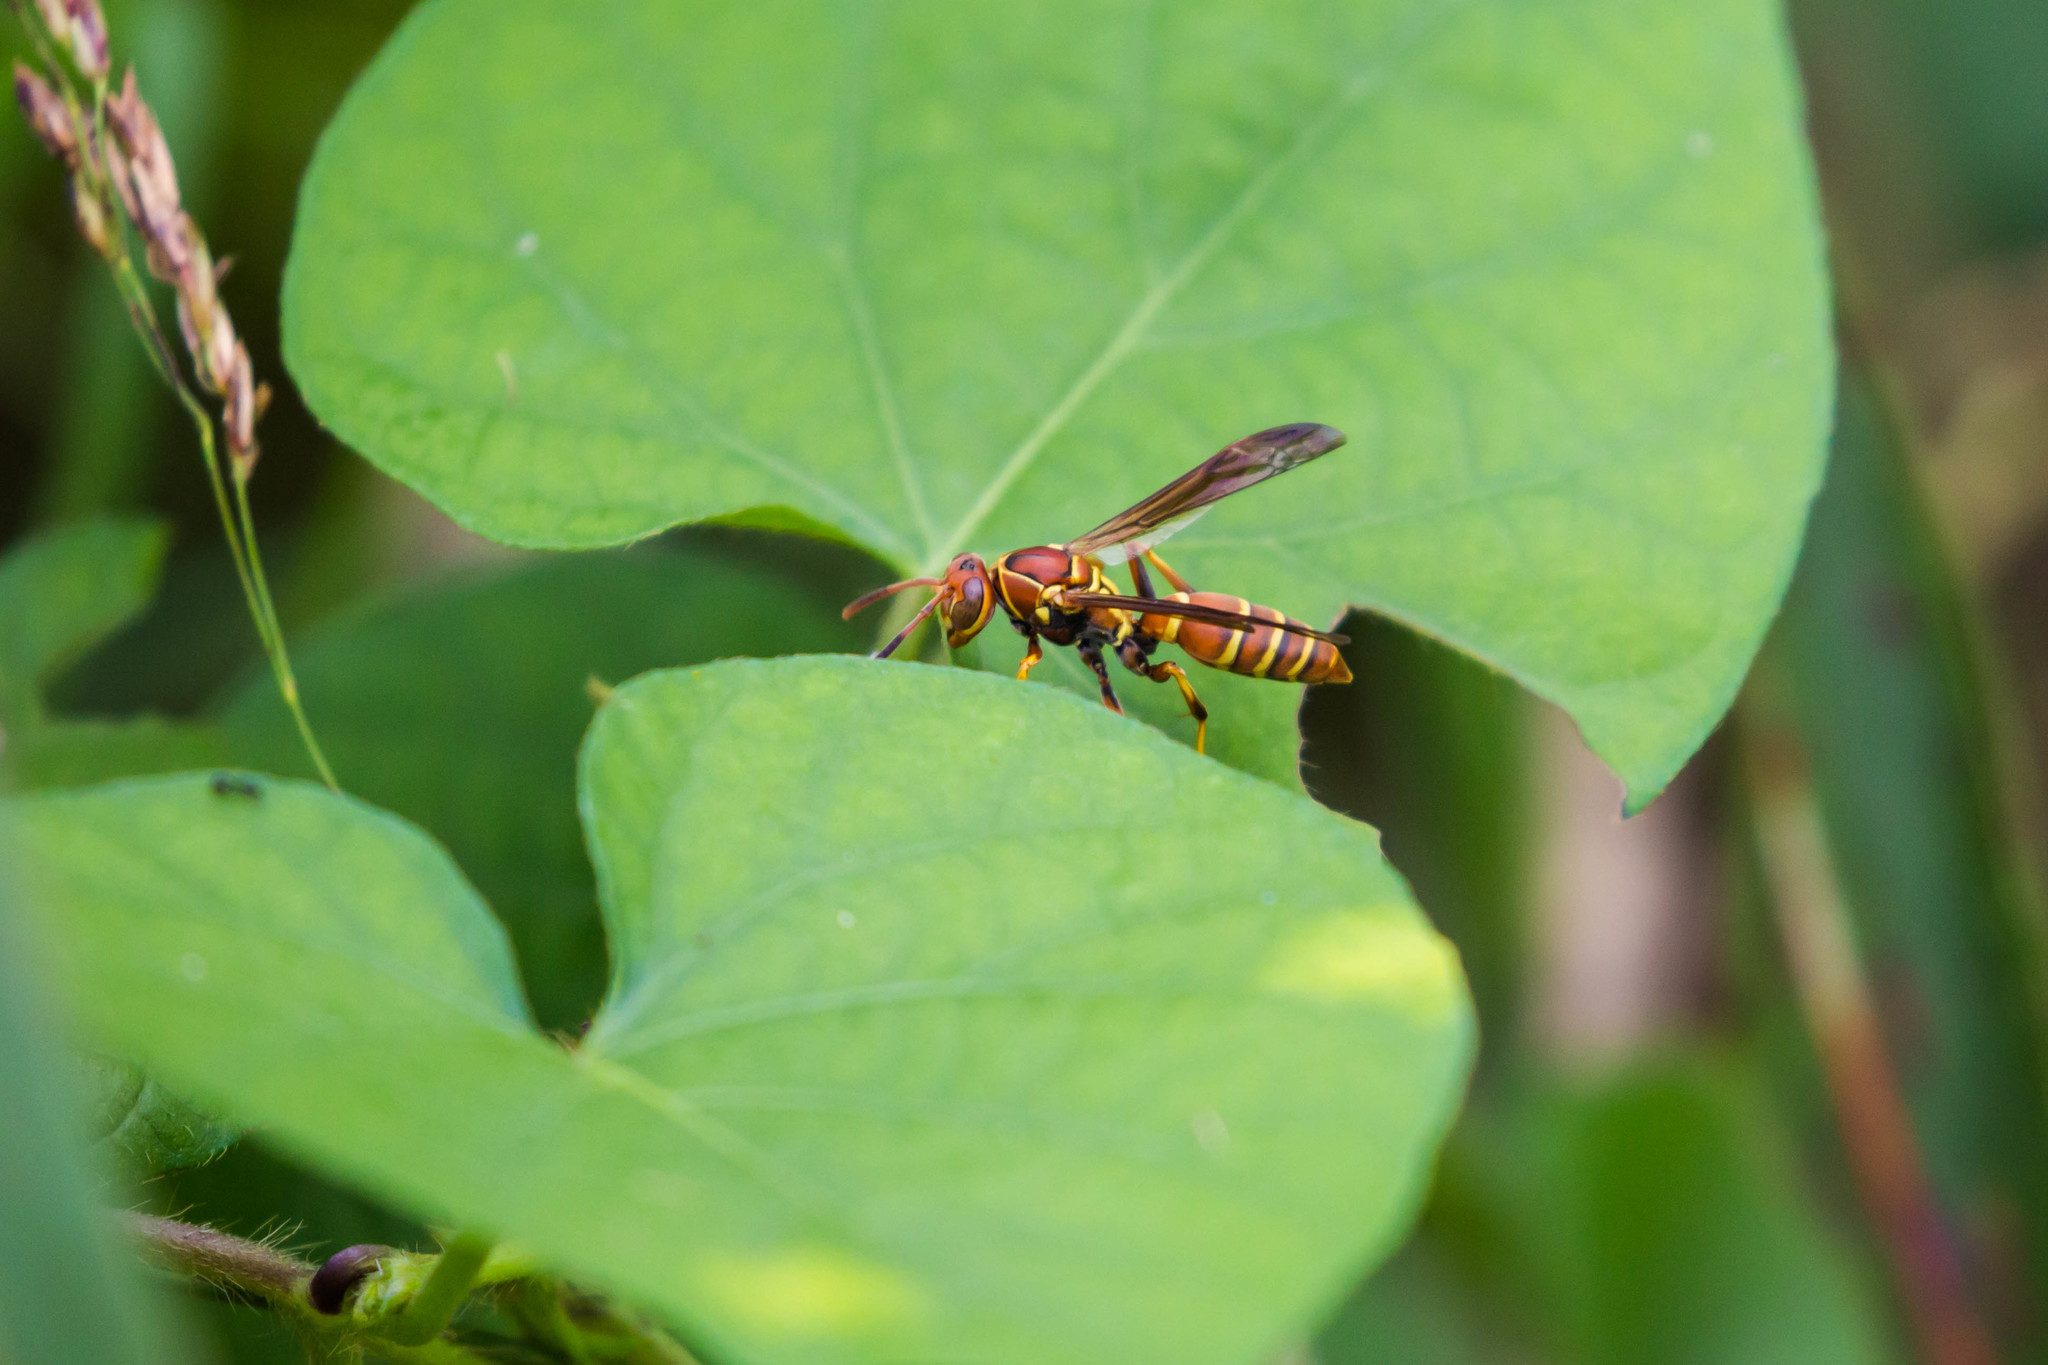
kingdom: Animalia
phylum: Arthropoda
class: Insecta
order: Hymenoptera
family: Eumenidae
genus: Polistes
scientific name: Polistes dorsalis
